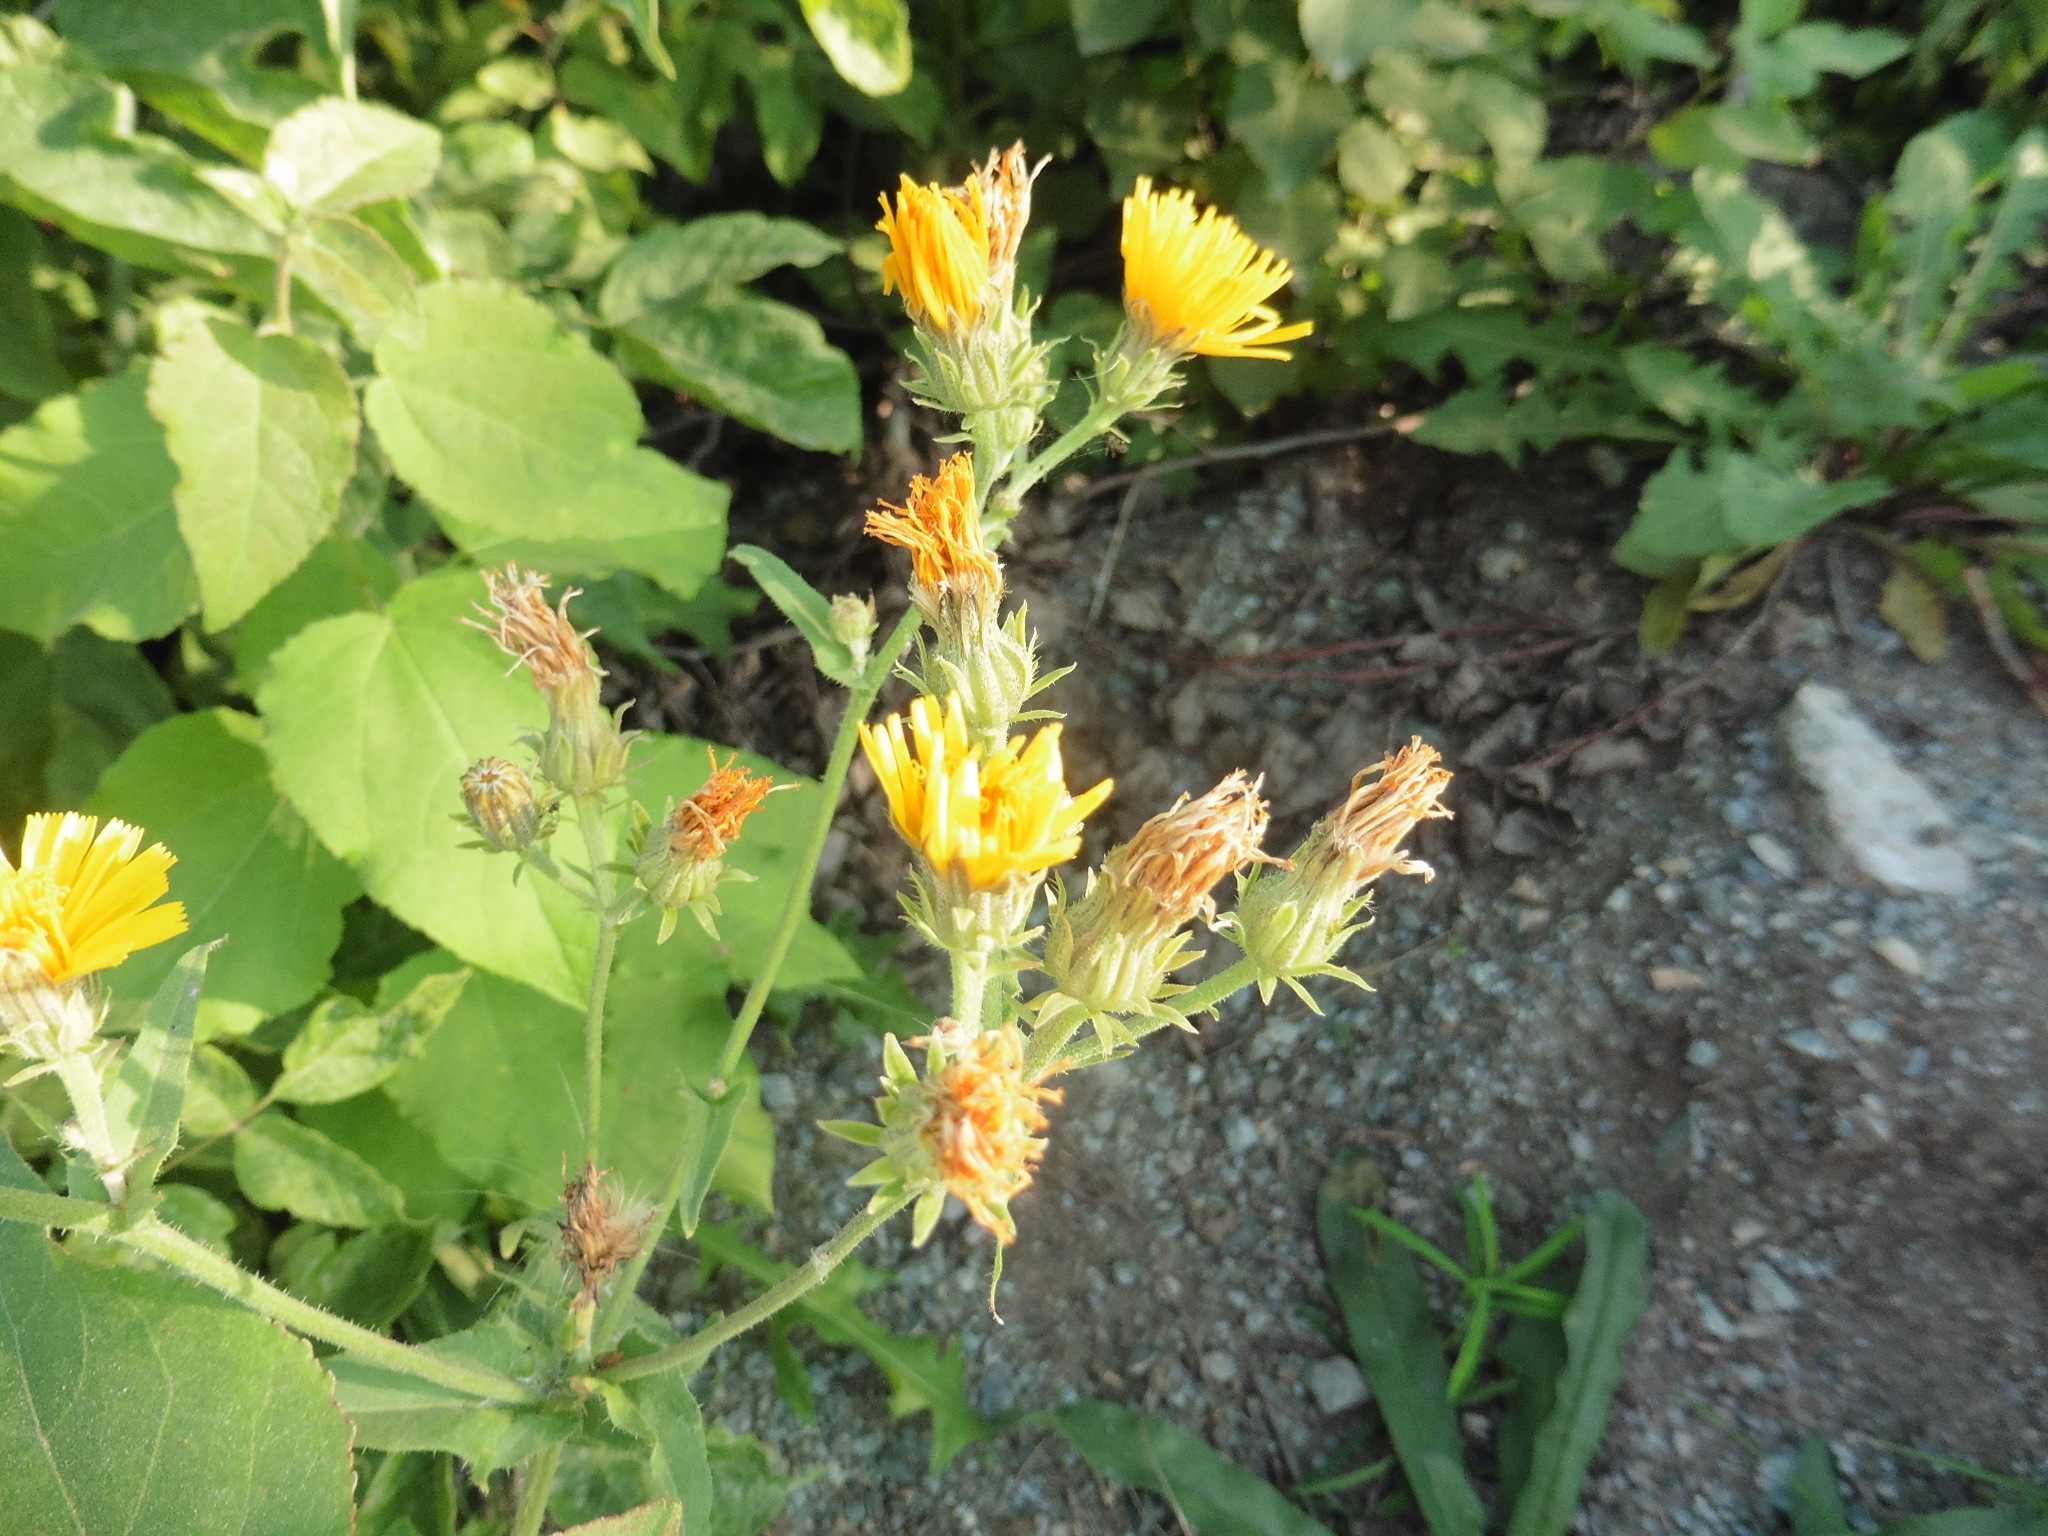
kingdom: Plantae
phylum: Tracheophyta
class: Magnoliopsida
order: Asterales
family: Asteraceae
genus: Picris
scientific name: Picris hieracioides
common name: Hawkweed oxtongue
